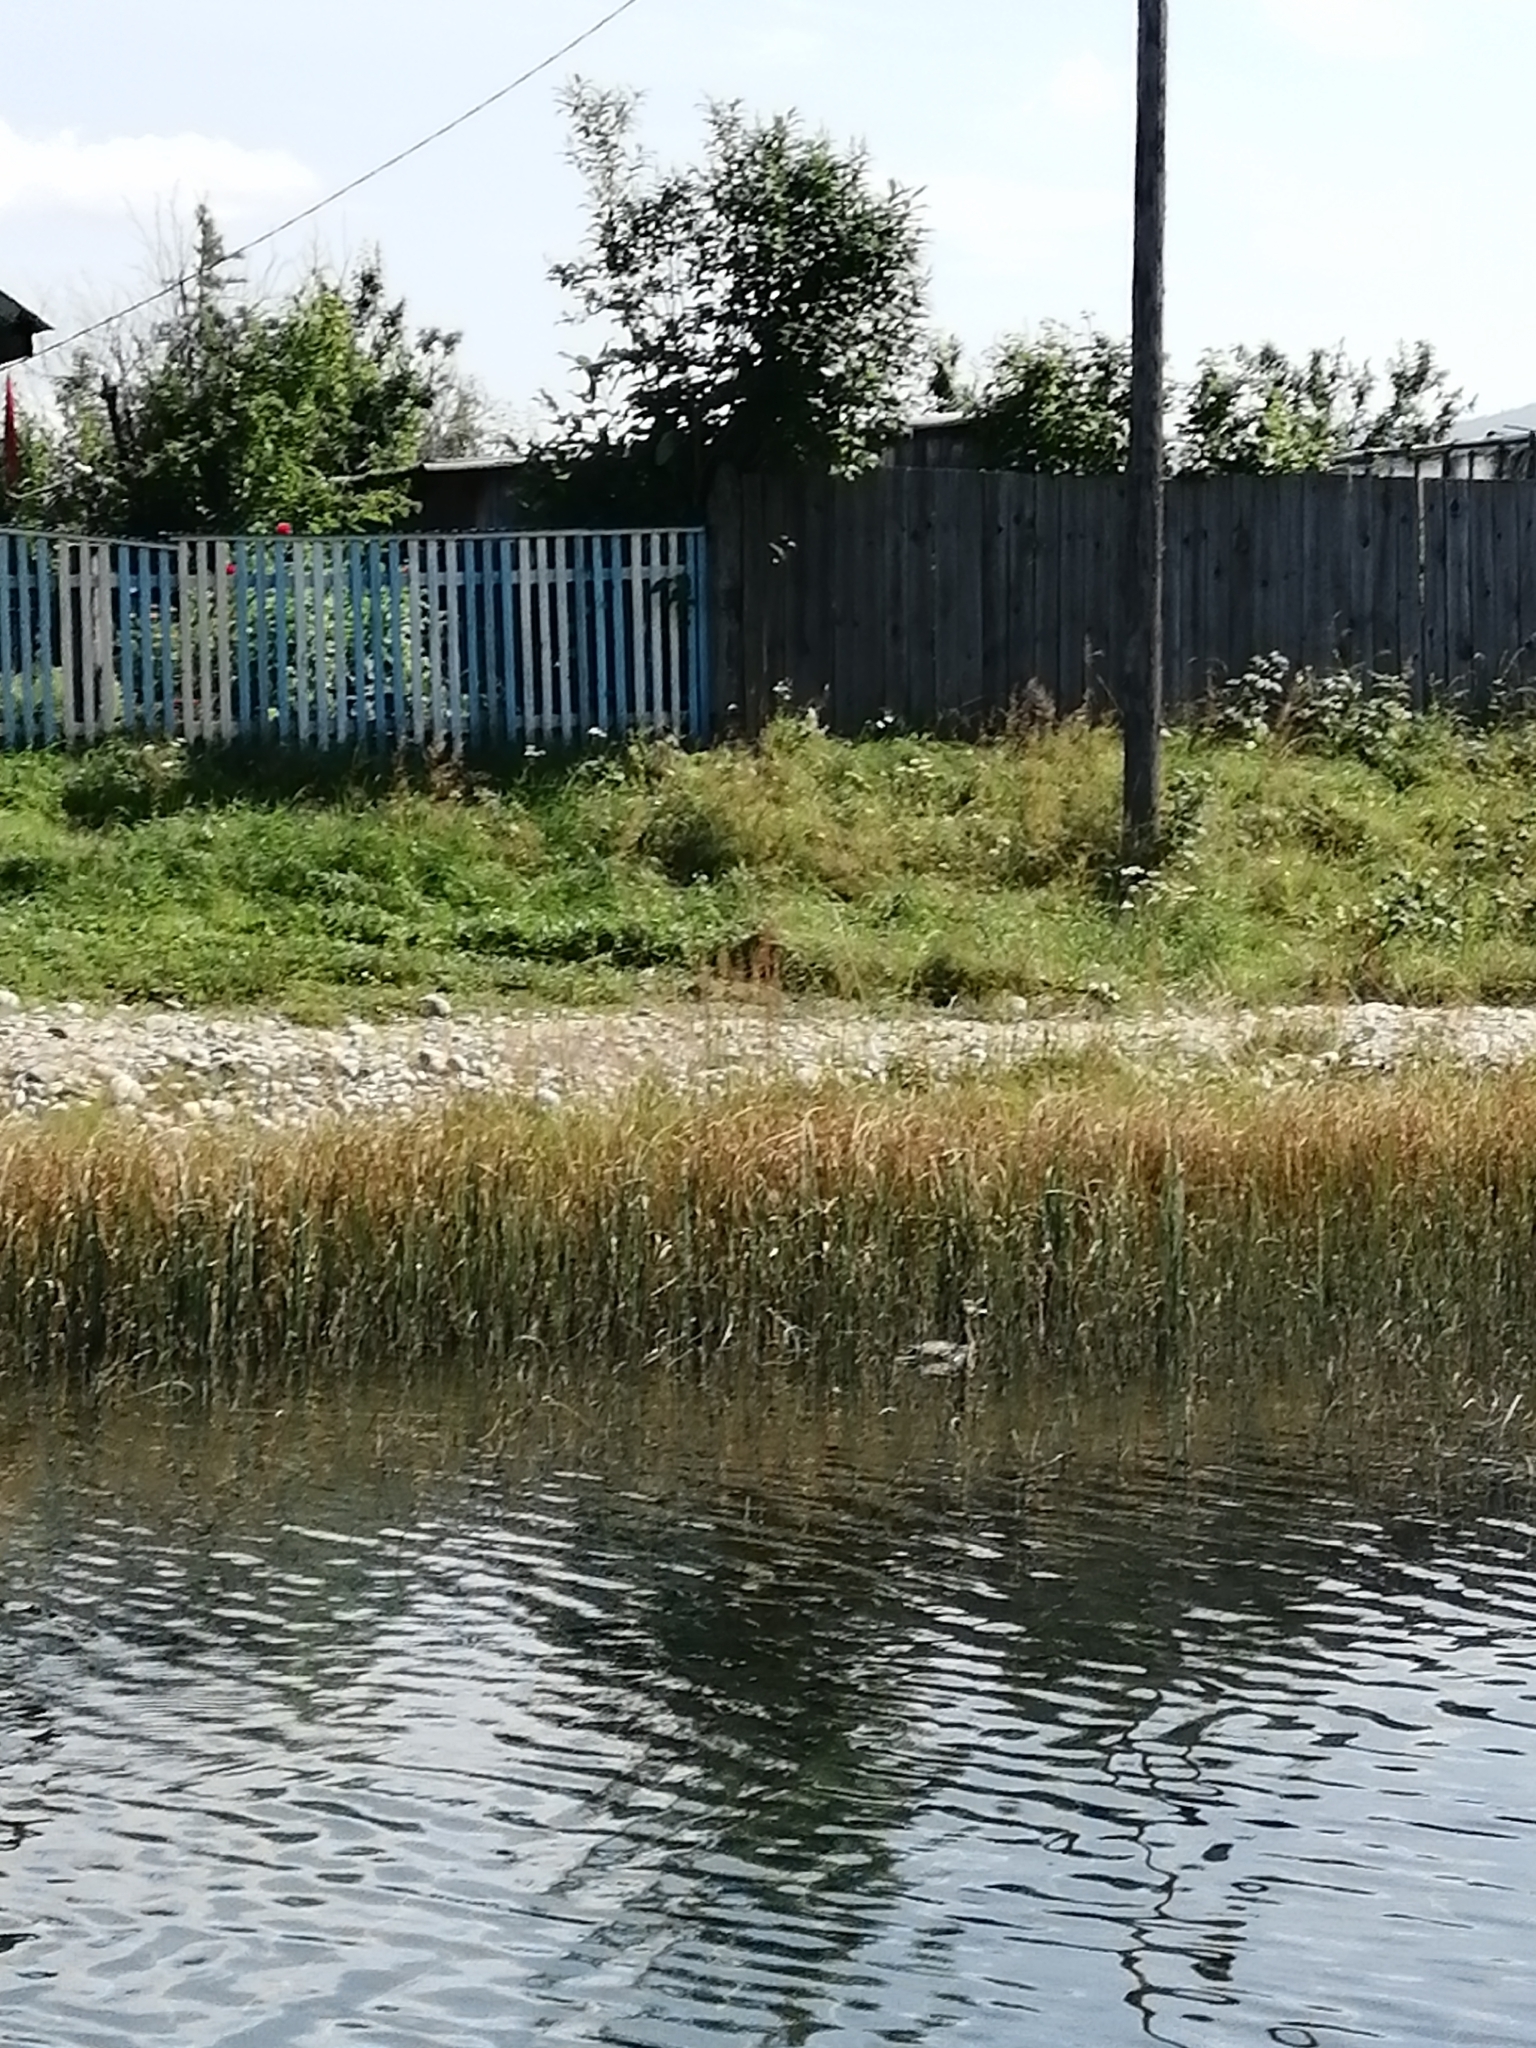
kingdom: Animalia
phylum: Chordata
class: Aves
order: Anseriformes
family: Anatidae
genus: Anas
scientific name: Anas
